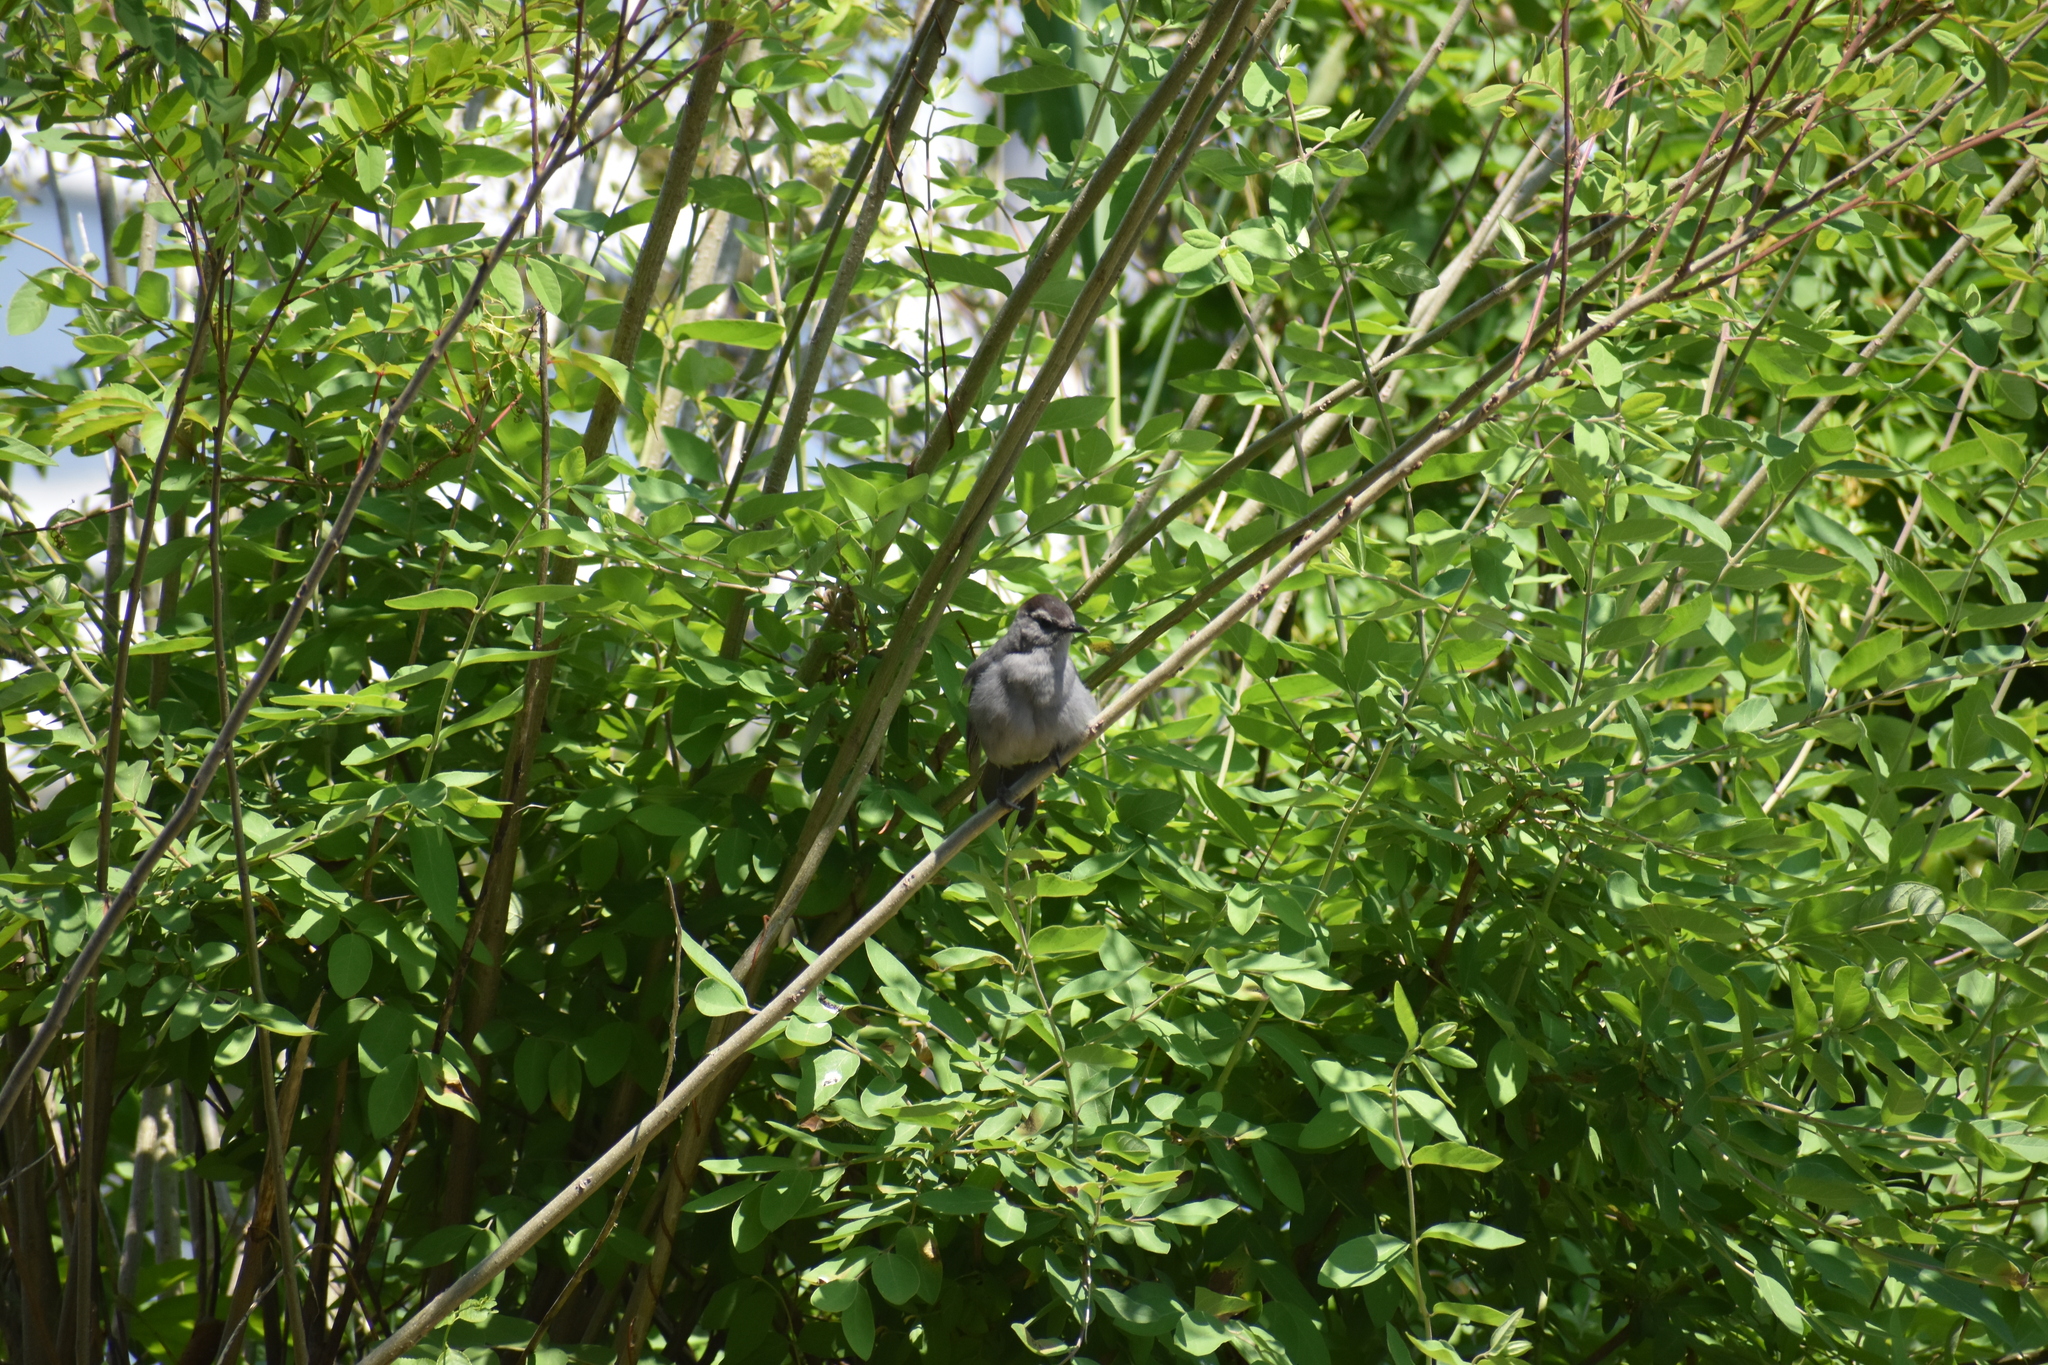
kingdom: Animalia
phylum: Chordata
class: Aves
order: Passeriformes
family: Mimidae
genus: Dumetella
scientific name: Dumetella carolinensis
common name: Gray catbird
